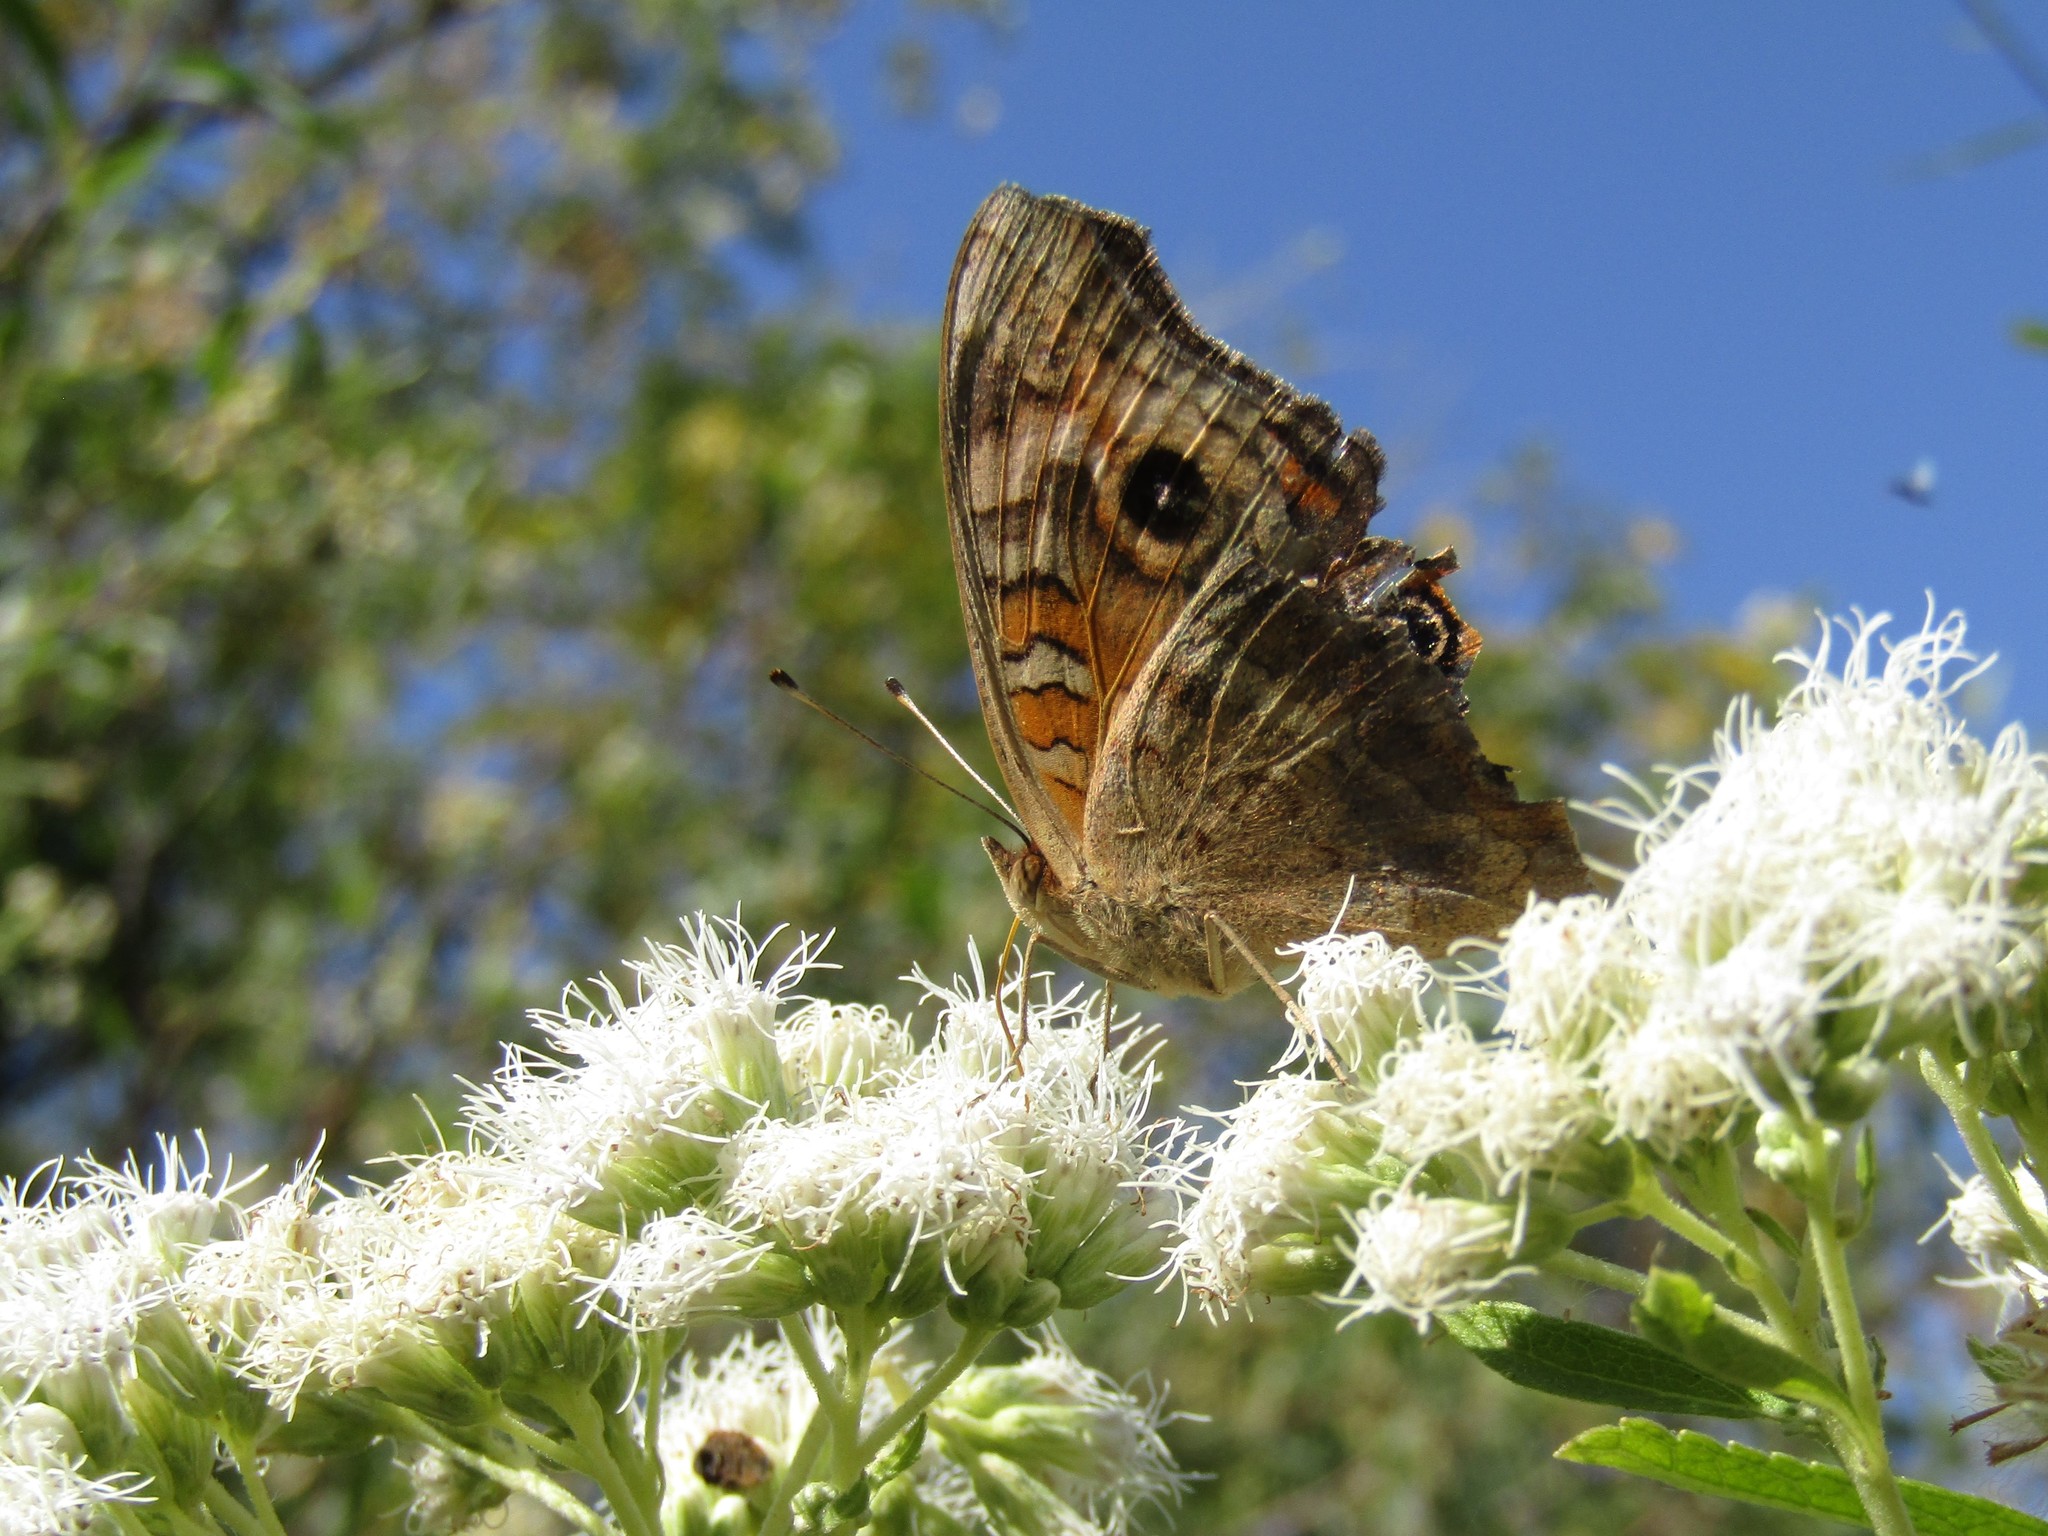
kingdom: Animalia
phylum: Arthropoda
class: Insecta
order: Lepidoptera
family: Nymphalidae
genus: Junonia
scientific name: Junonia lavinia
